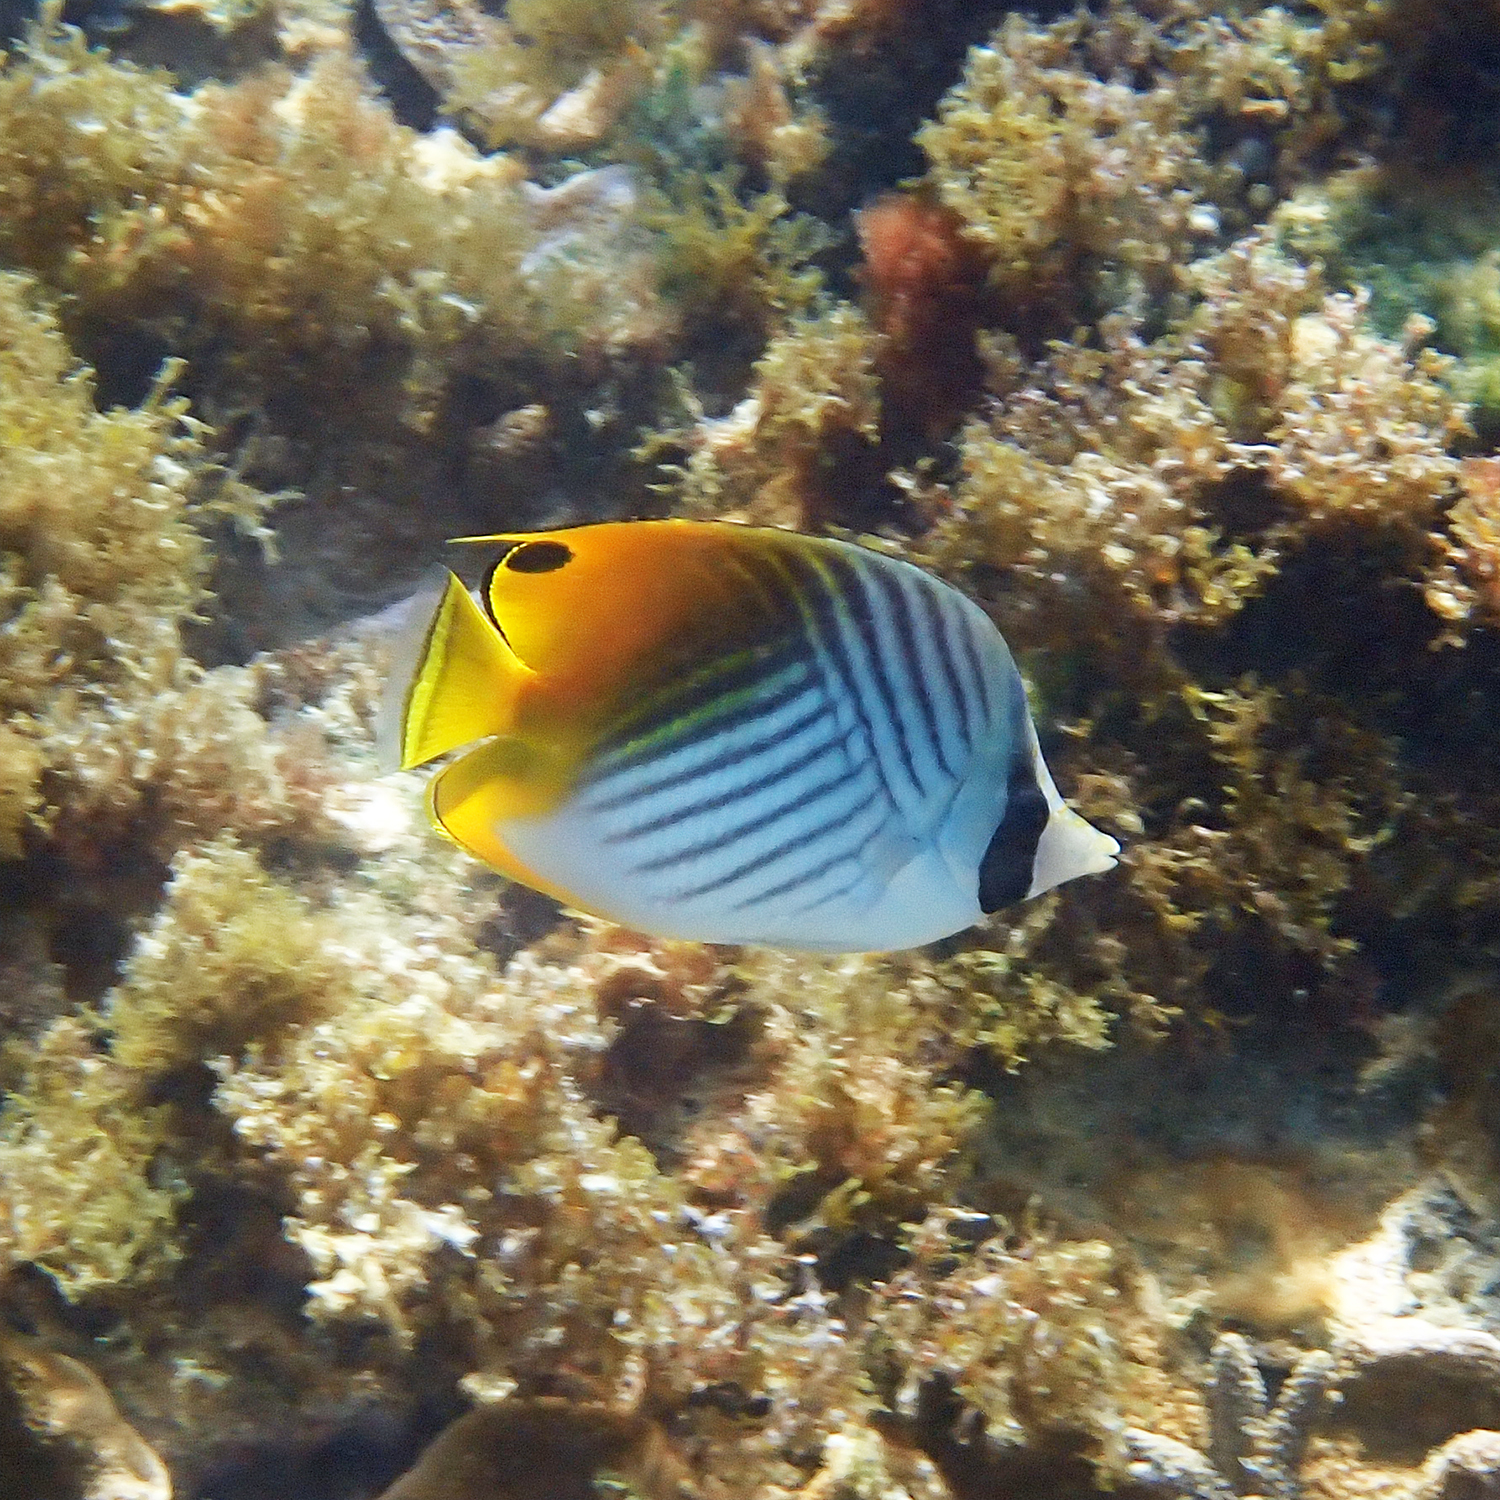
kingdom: Animalia
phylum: Chordata
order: Perciformes
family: Chaetodontidae
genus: Chaetodon
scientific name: Chaetodon auriga
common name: Threadfin butterflyfish
